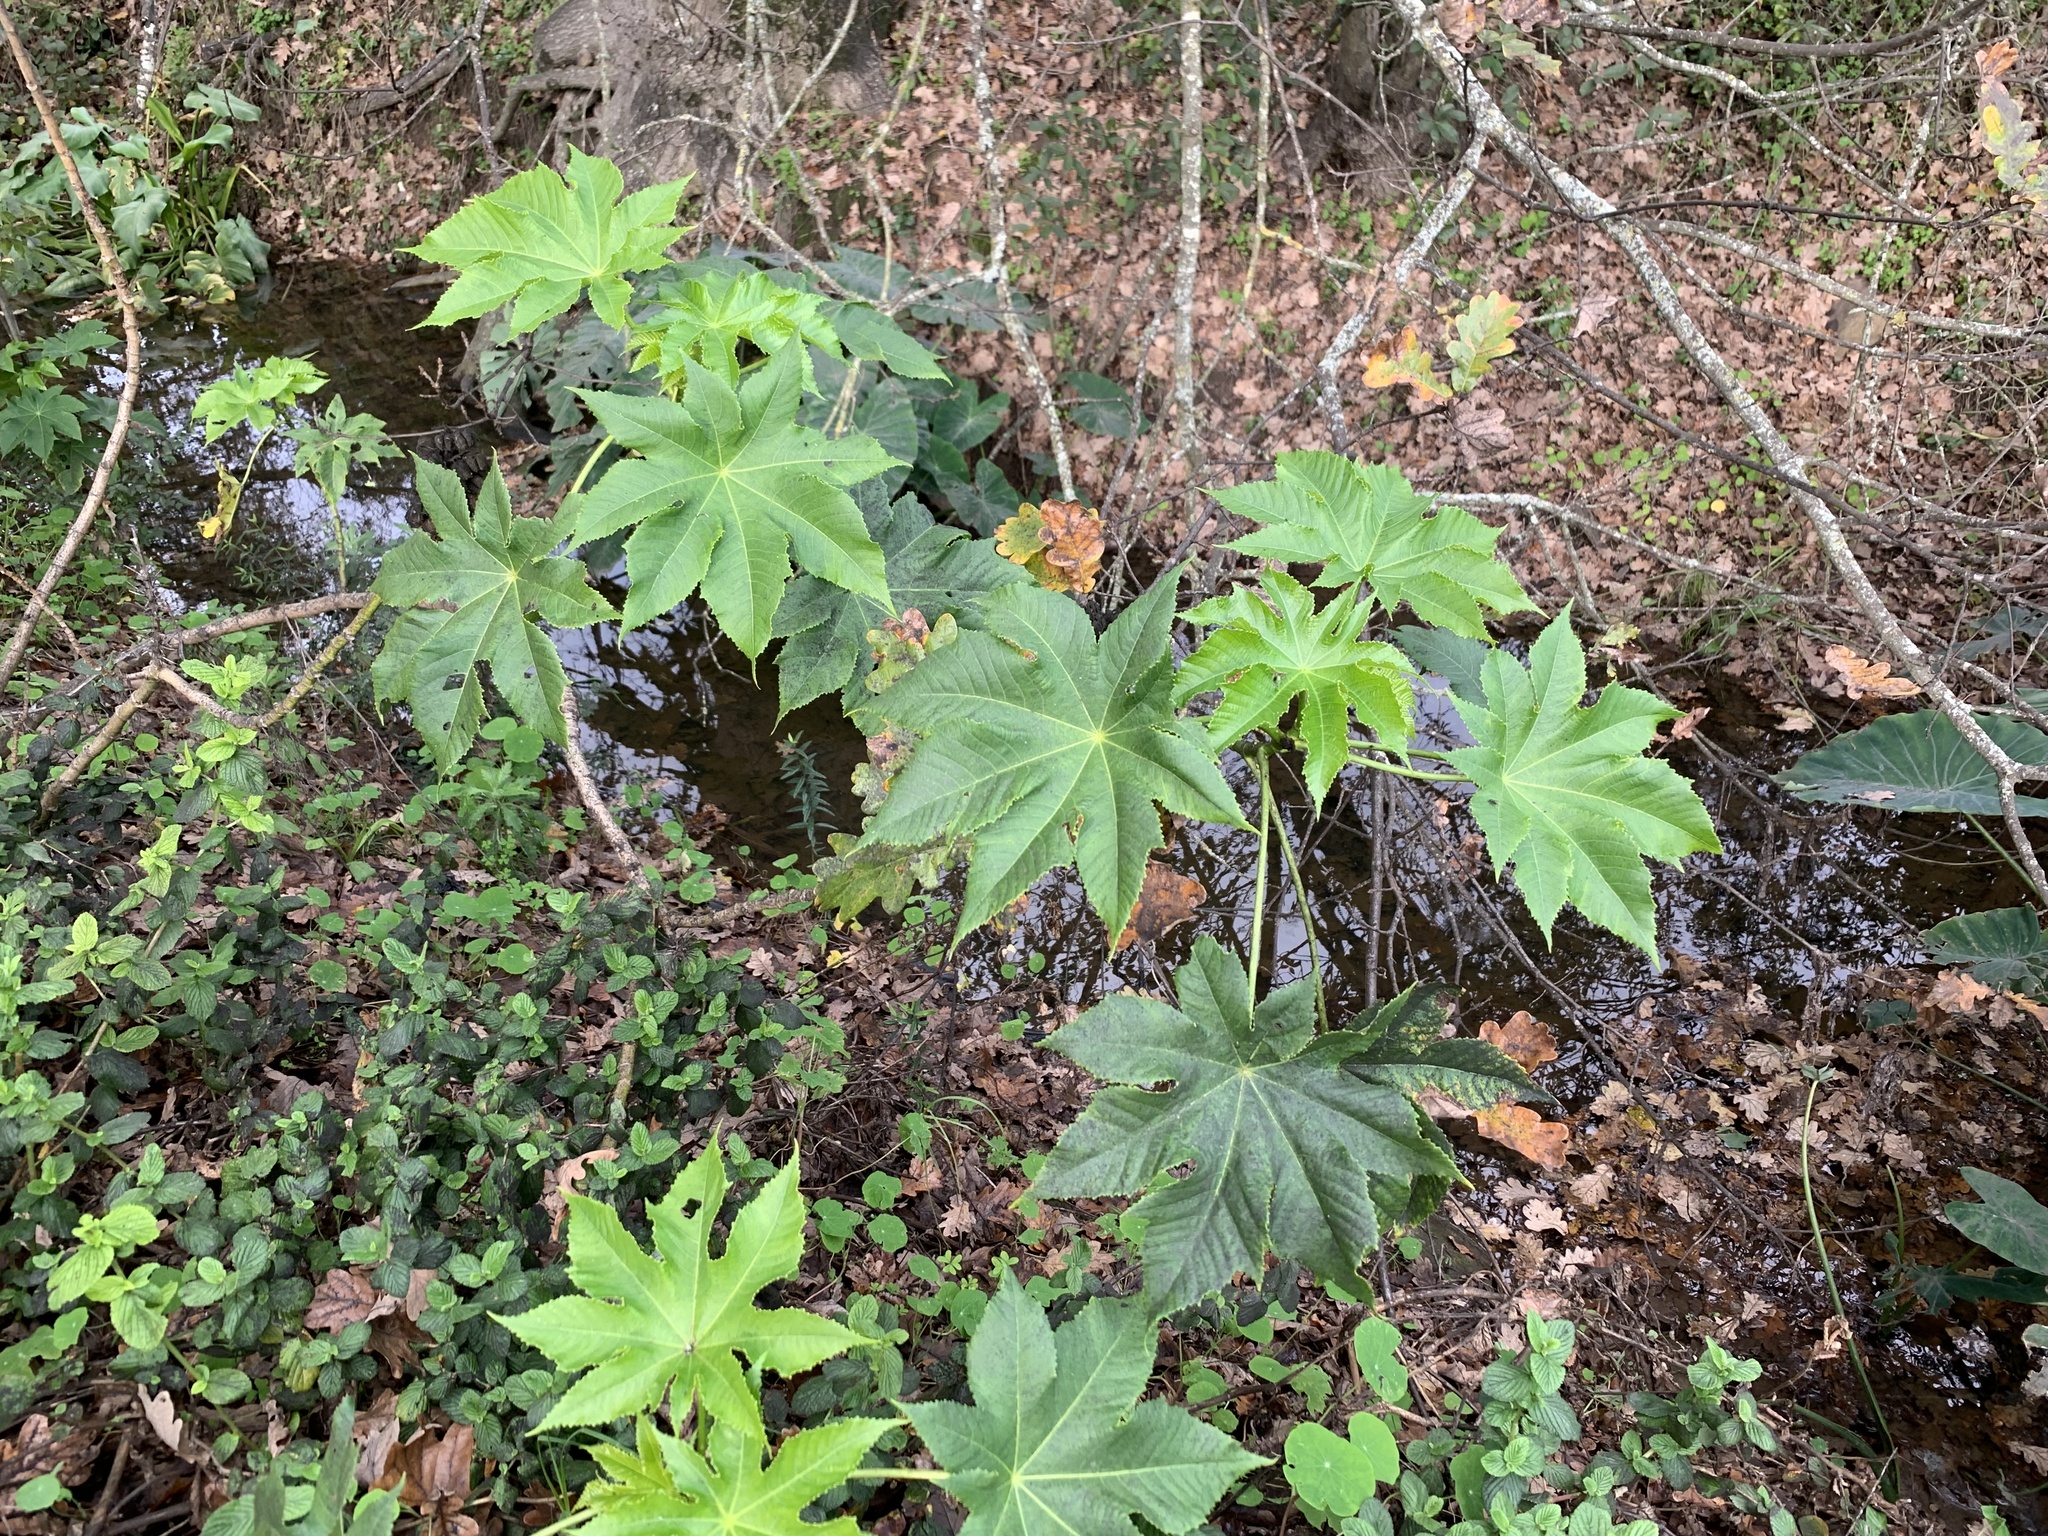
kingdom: Plantae
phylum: Tracheophyta
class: Magnoliopsida
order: Malpighiales
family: Euphorbiaceae
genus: Ricinus
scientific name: Ricinus communis
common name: Castor-oil-plant
